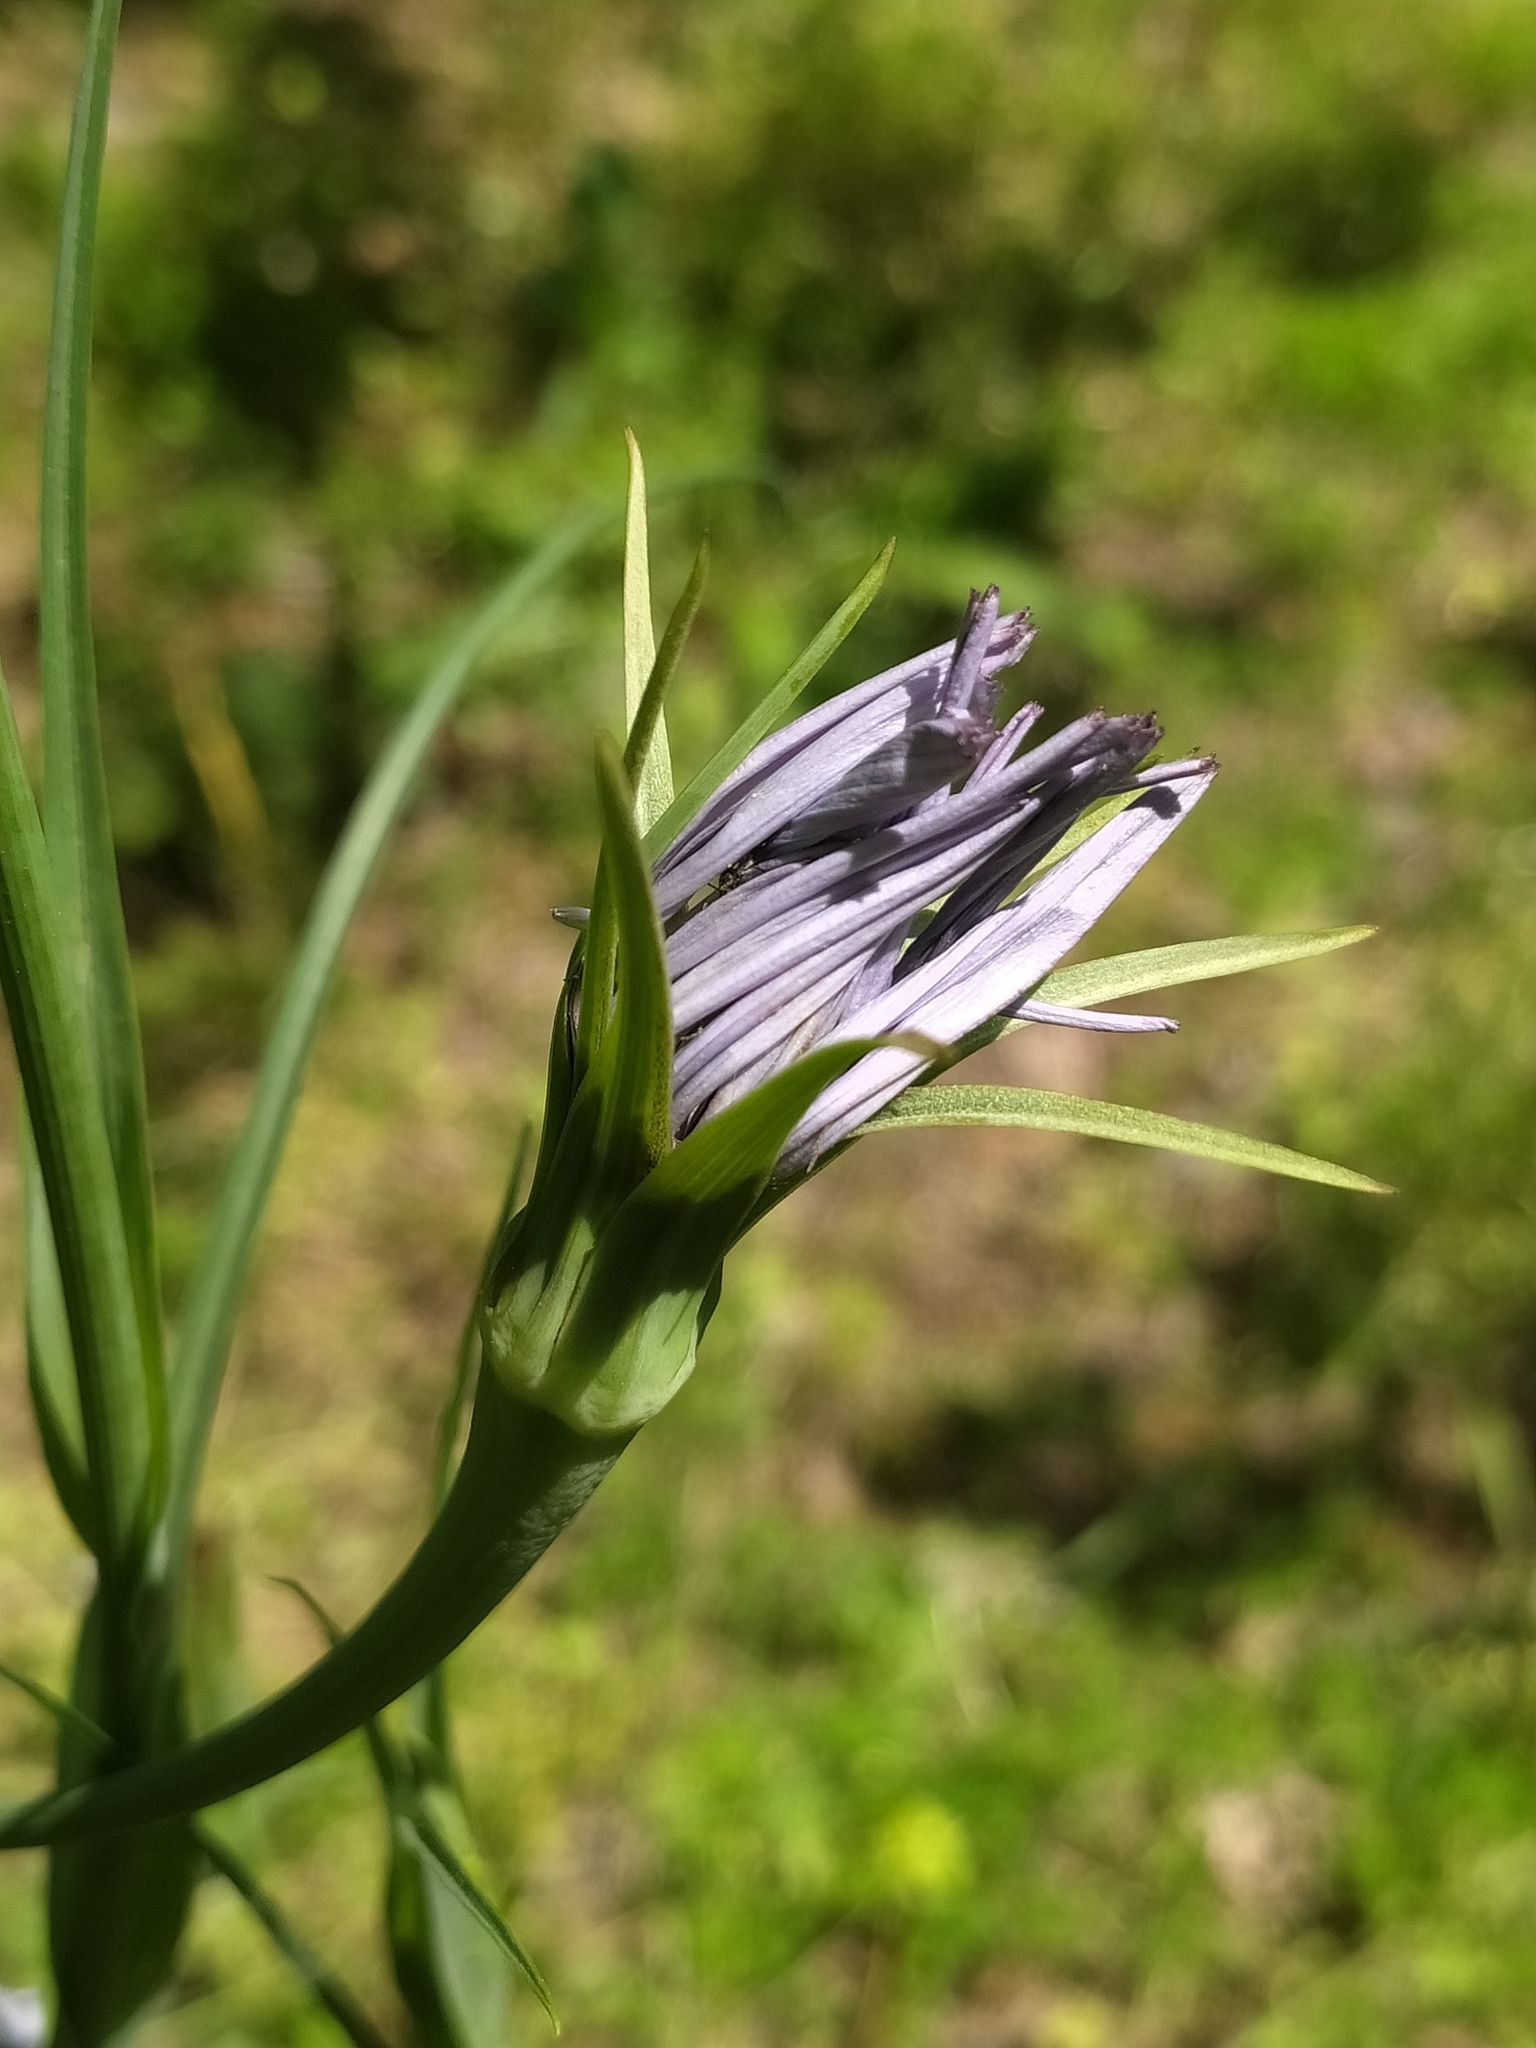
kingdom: Plantae
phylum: Tracheophyta
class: Magnoliopsida
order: Asterales
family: Asteraceae
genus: Tragopogon
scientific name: Tragopogon porrifolius
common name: Salsify
